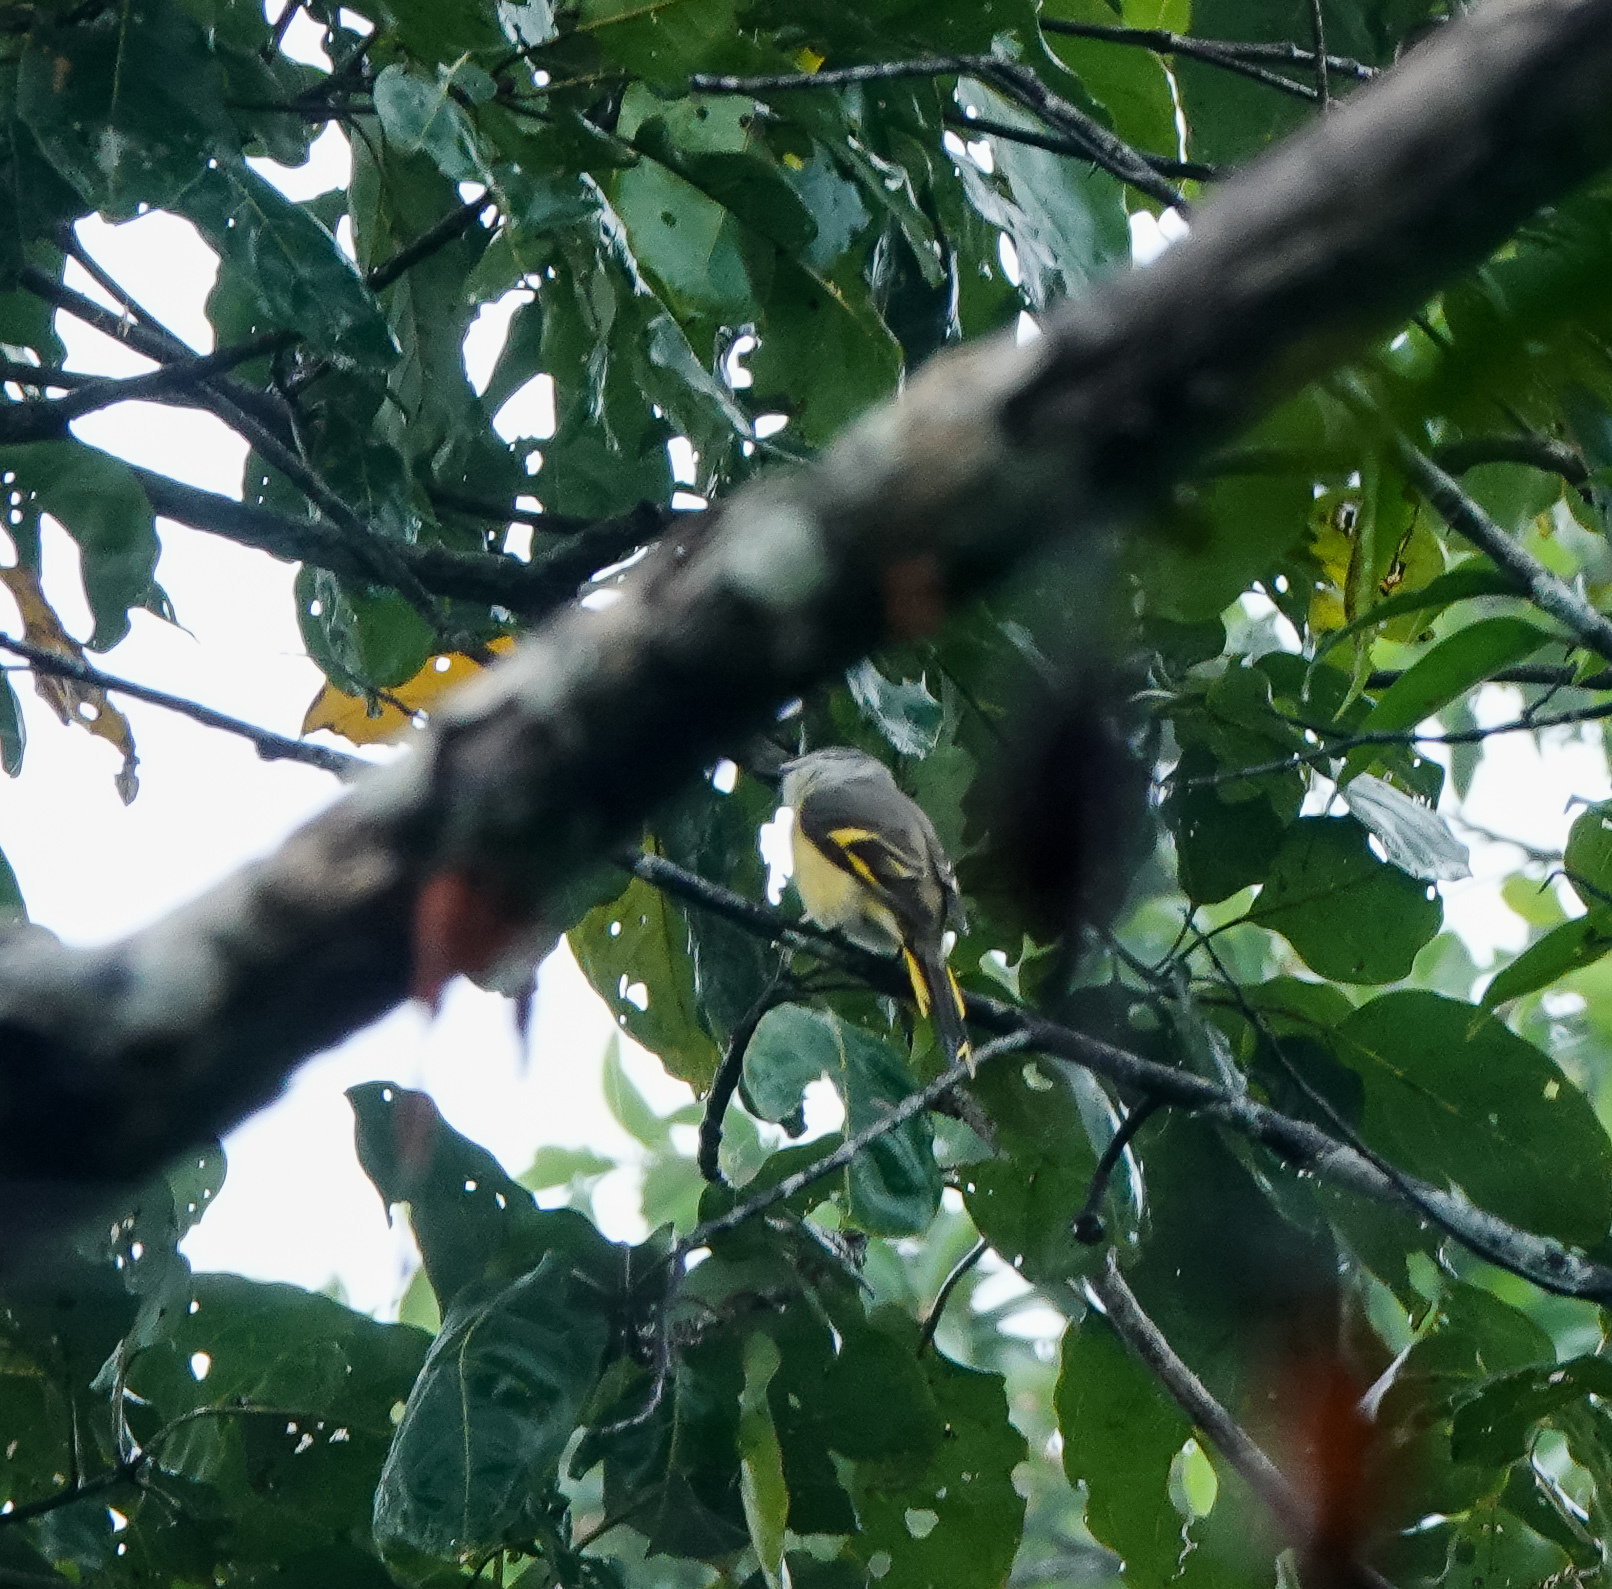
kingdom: Animalia
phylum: Chordata
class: Aves
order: Passeriformes
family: Campephagidae
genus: Pericrocotus
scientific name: Pericrocotus roseus
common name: Rosy minivet
